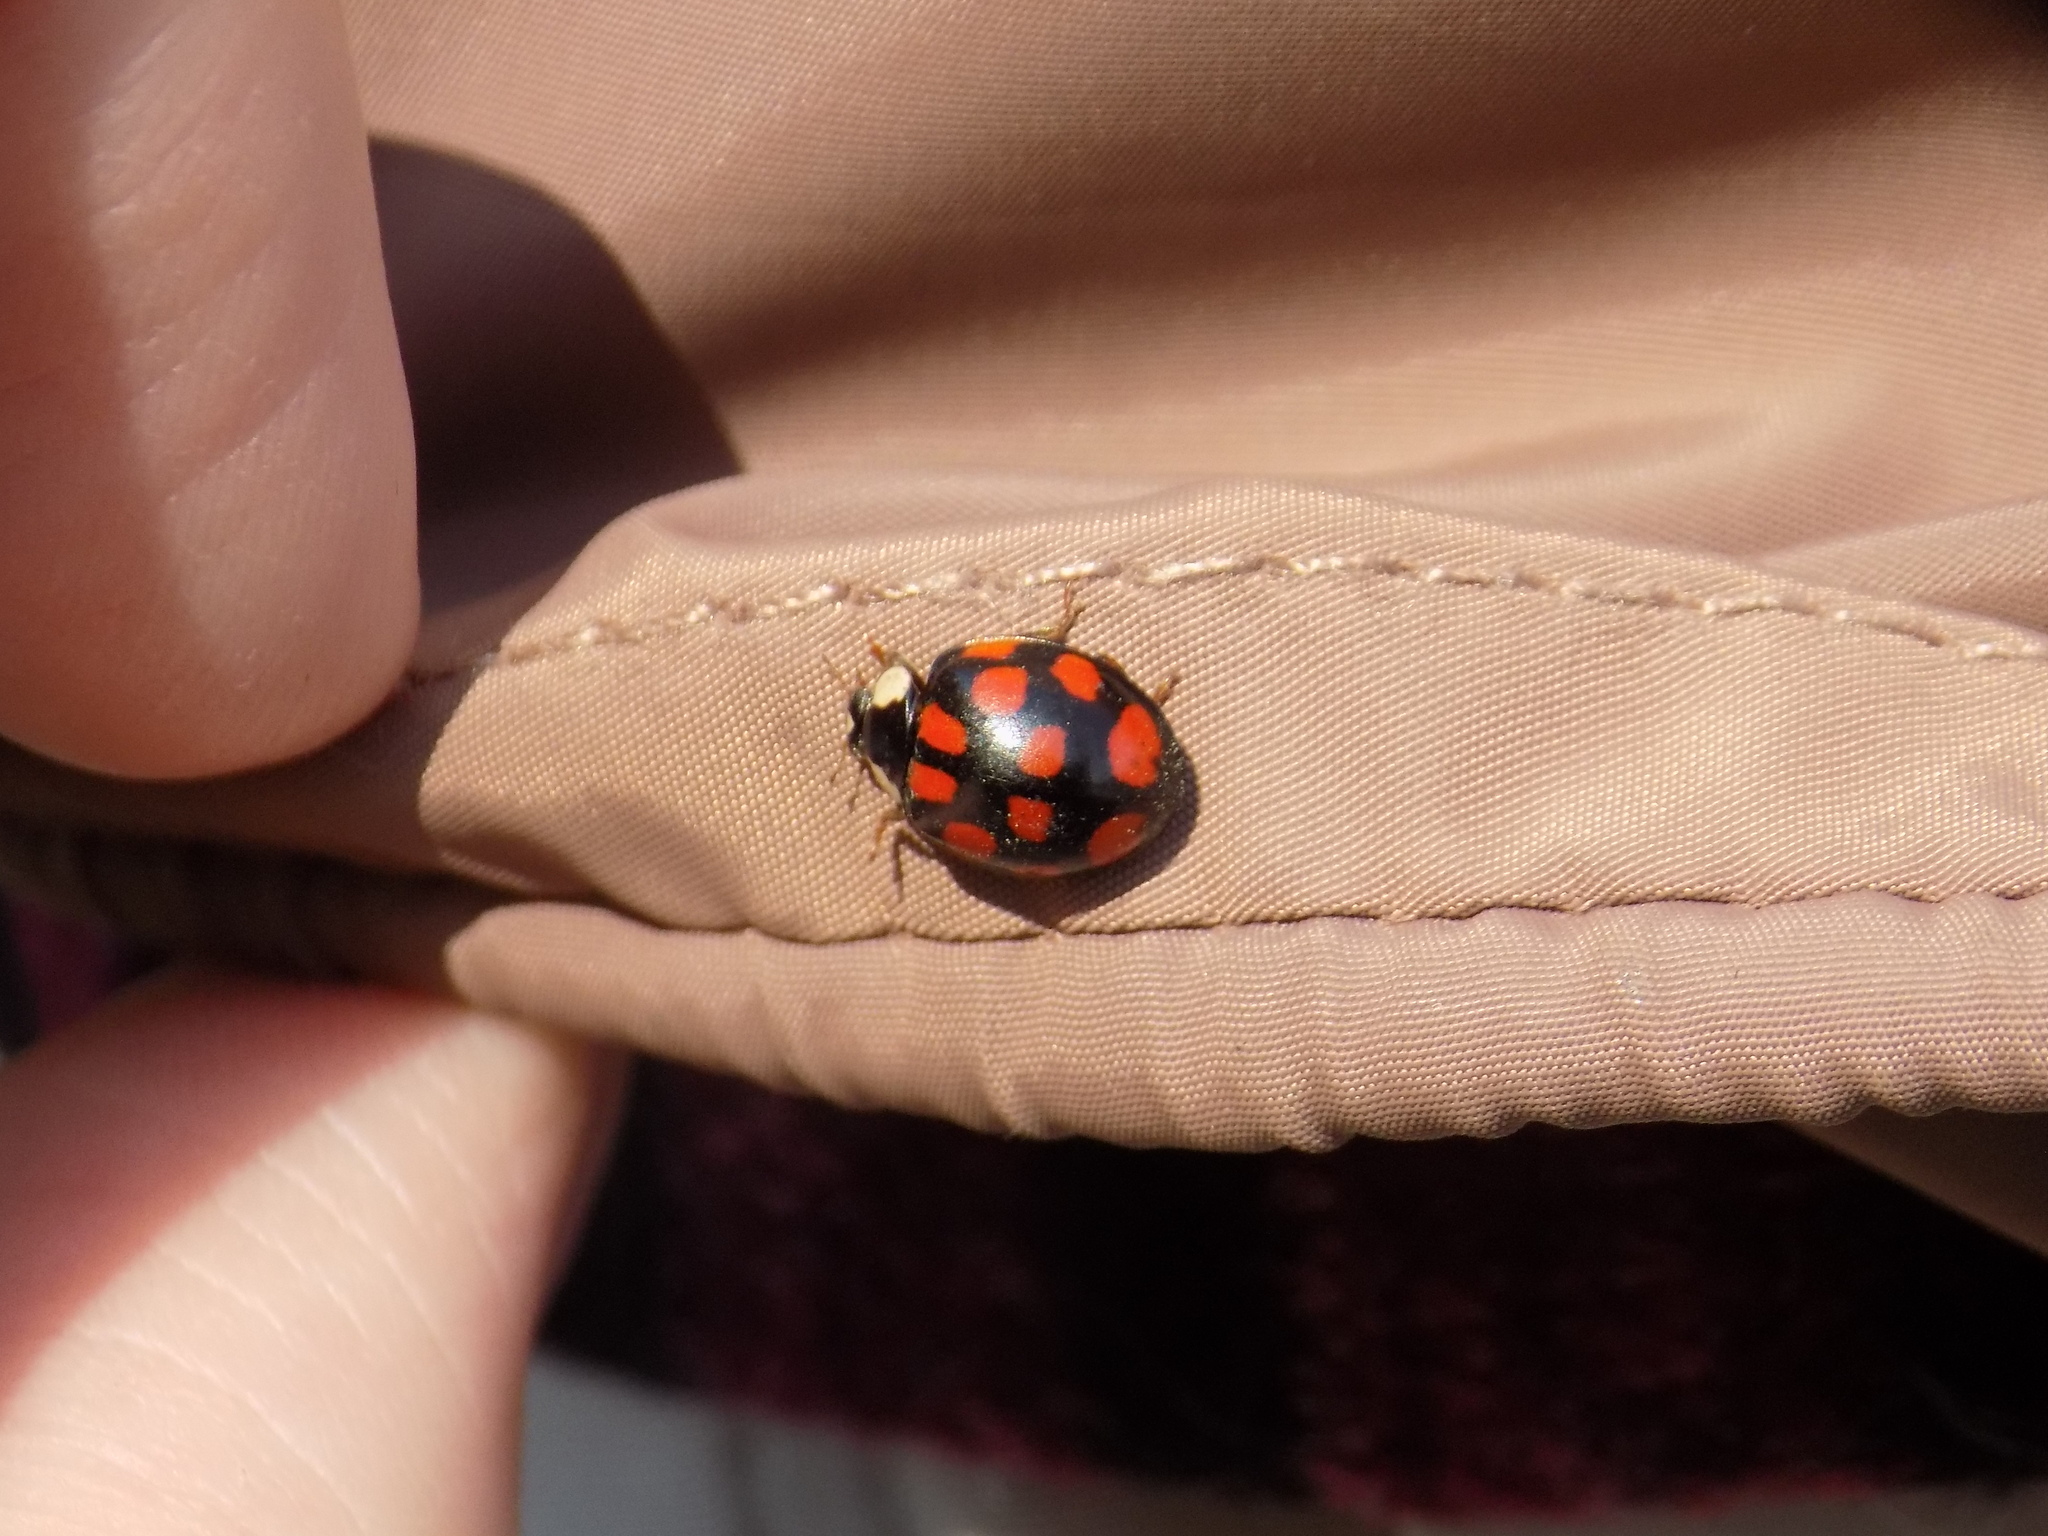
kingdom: Animalia
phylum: Arthropoda
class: Insecta
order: Coleoptera
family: Coccinellidae
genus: Harmonia
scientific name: Harmonia axyridis
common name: Harlequin ladybird
